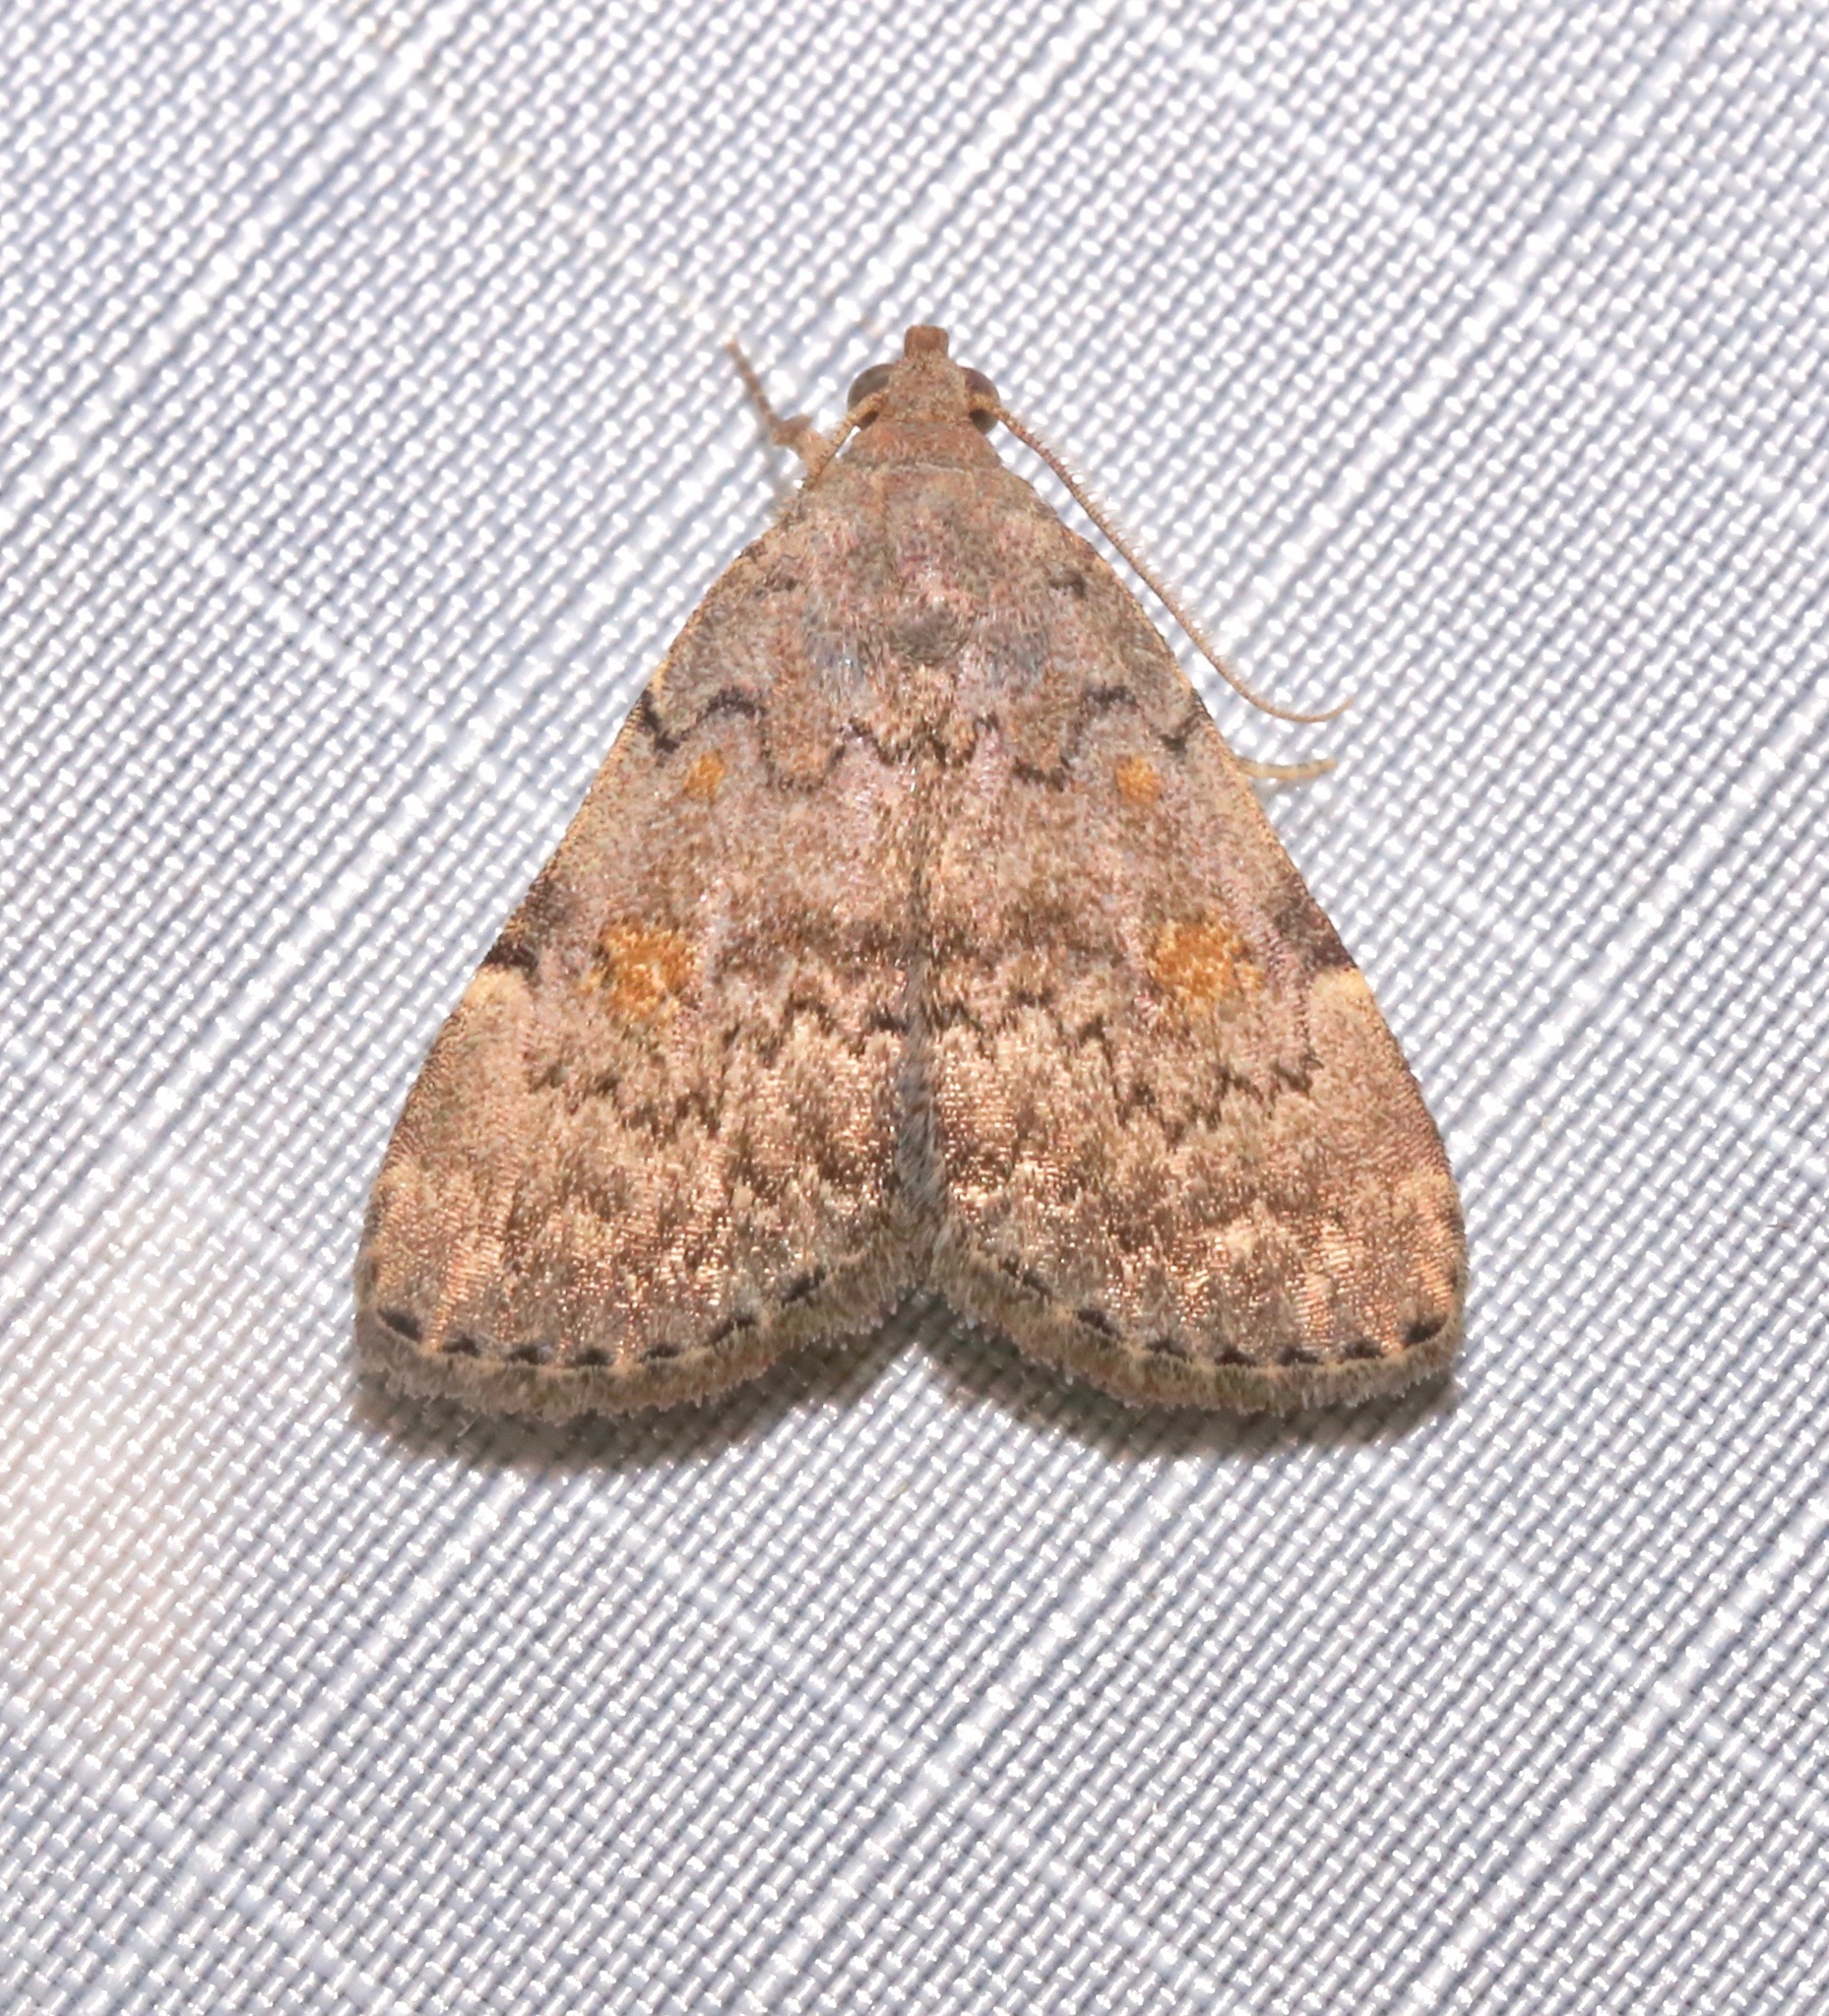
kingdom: Animalia
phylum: Arthropoda
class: Insecta
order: Lepidoptera
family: Erebidae
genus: Idia
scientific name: Idia aemula
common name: Common idia moth
